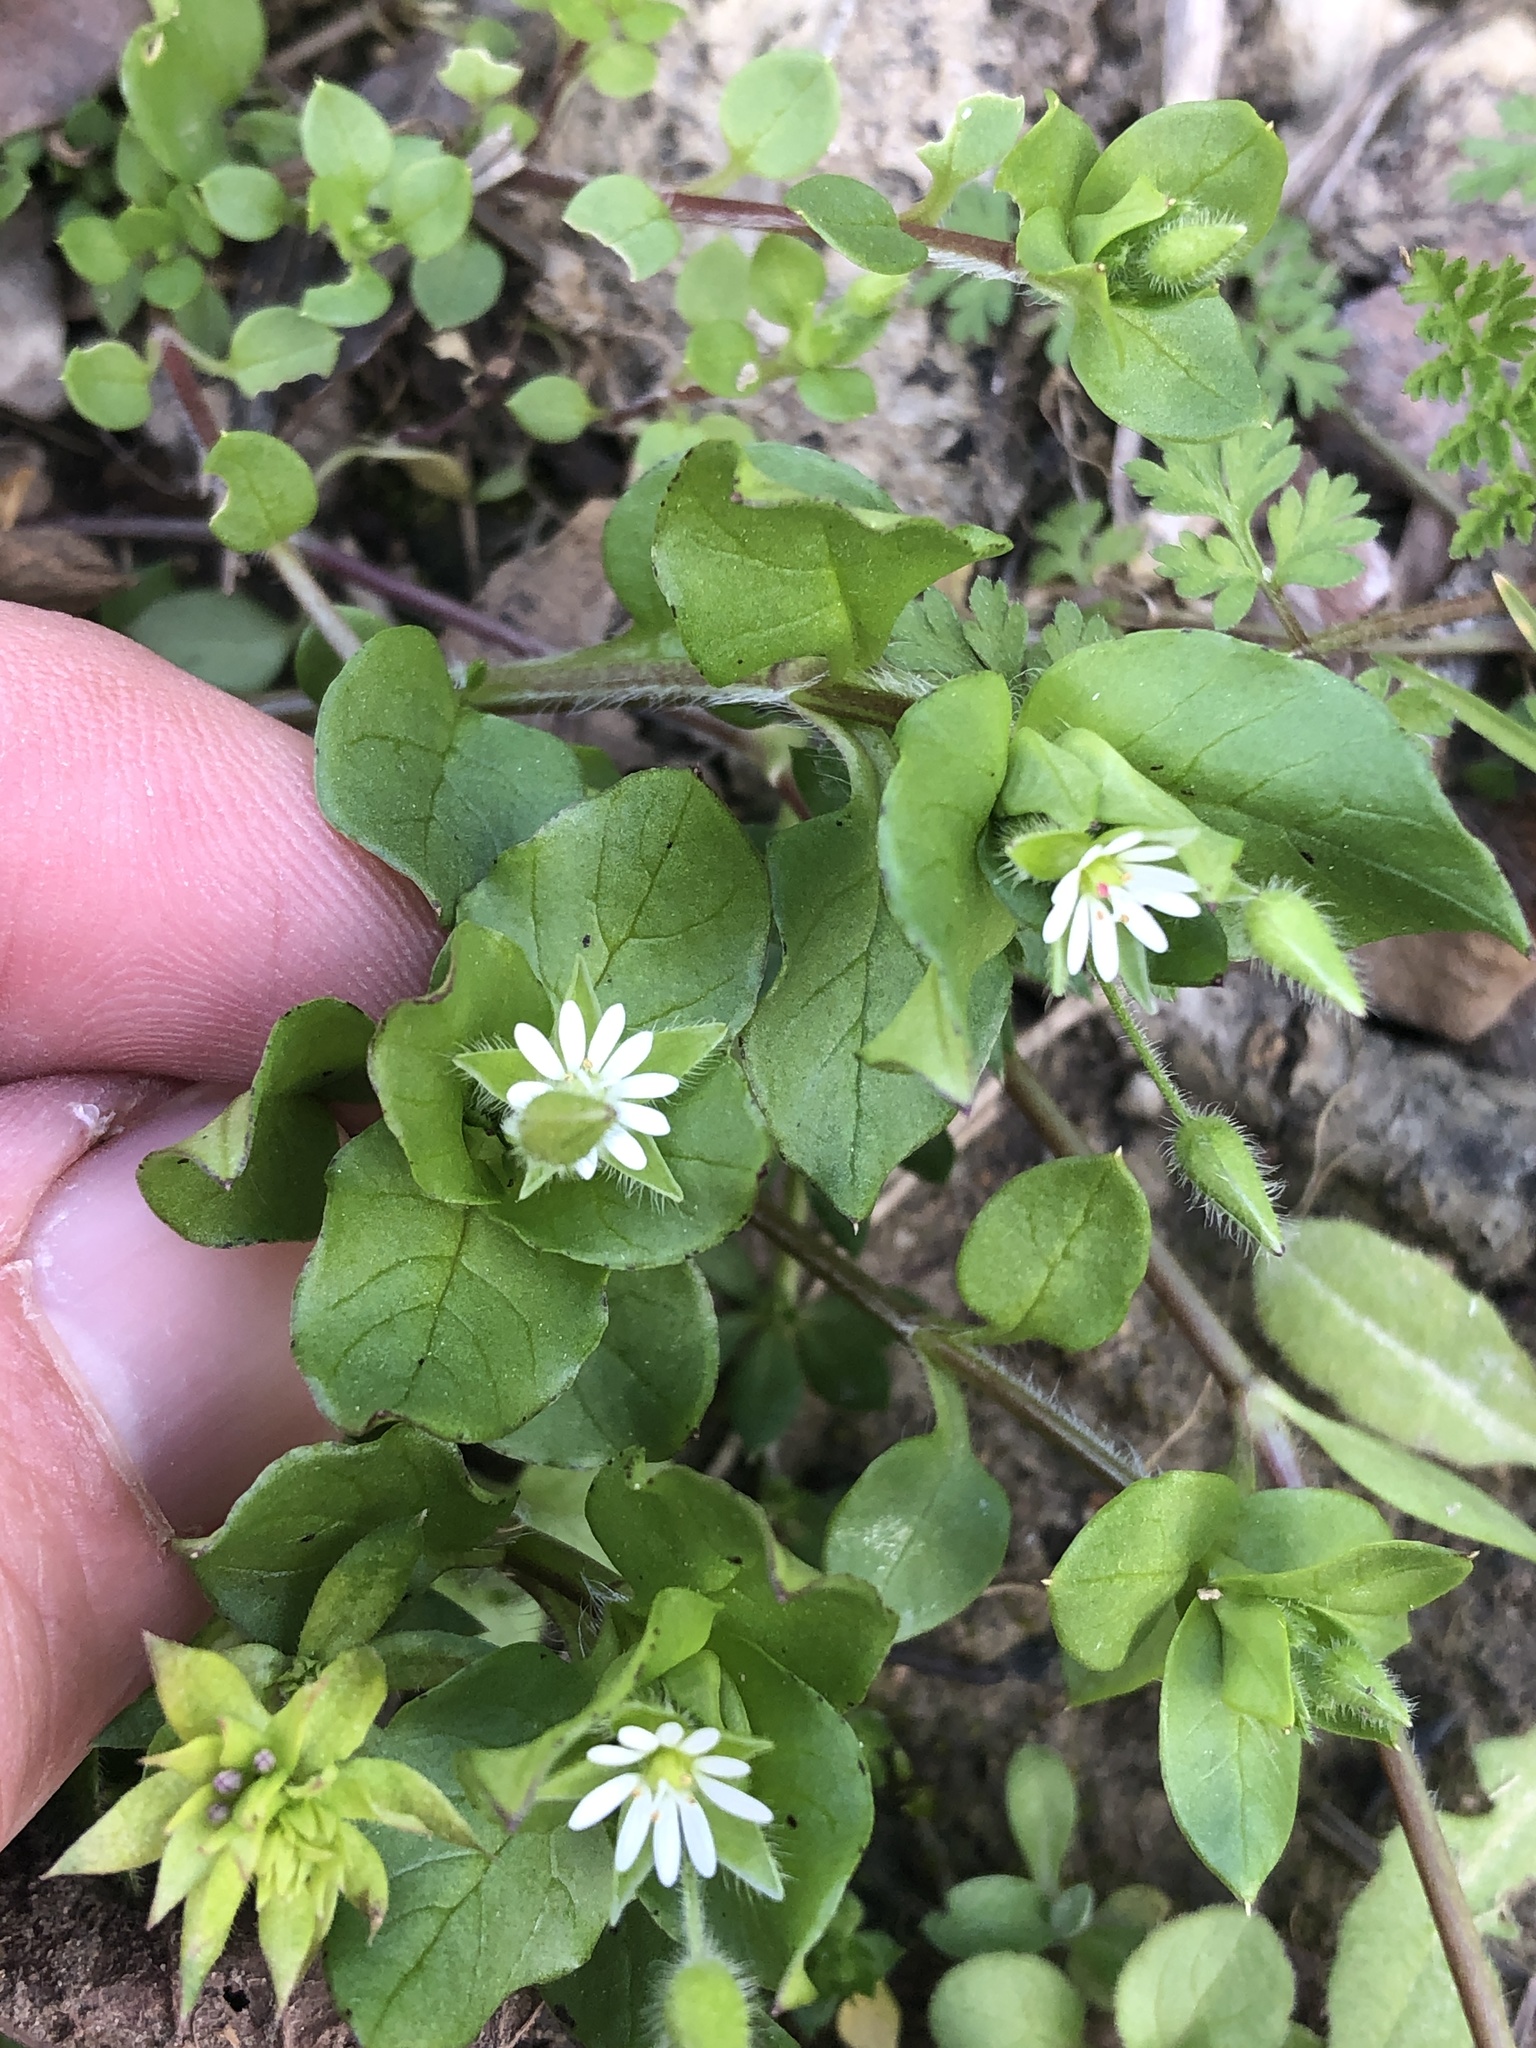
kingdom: Plantae
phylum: Tracheophyta
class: Magnoliopsida
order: Caryophyllales
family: Caryophyllaceae
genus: Stellaria
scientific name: Stellaria media
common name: Common chickweed
